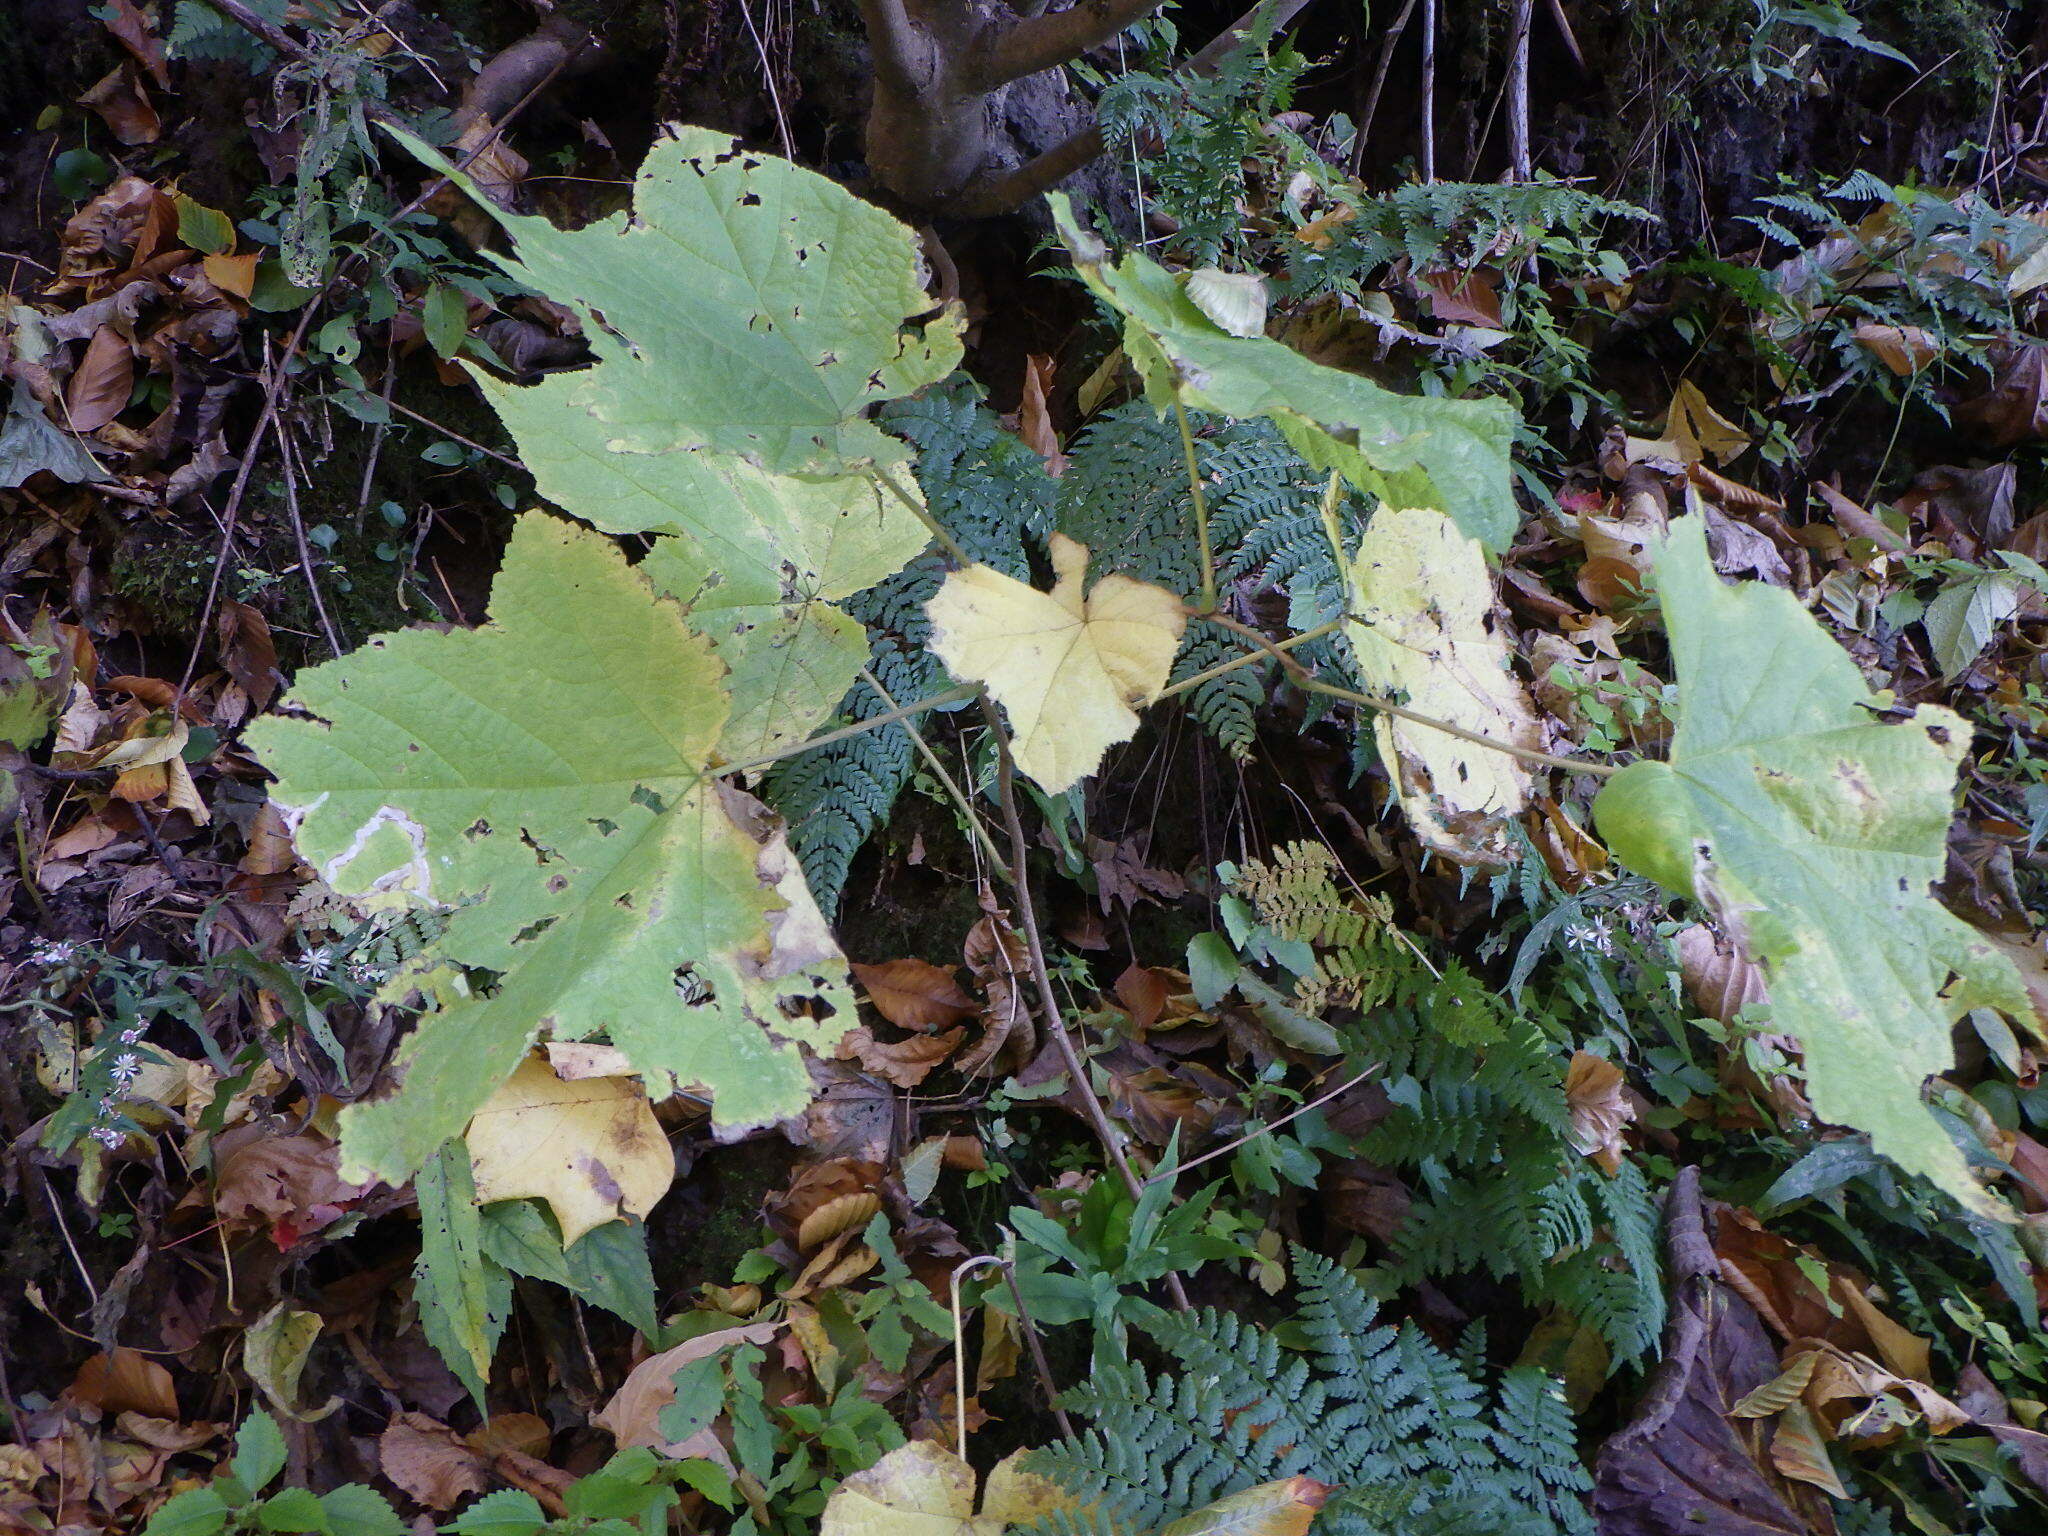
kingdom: Plantae
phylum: Tracheophyta
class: Magnoliopsida
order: Rosales
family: Rosaceae
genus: Rubus
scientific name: Rubus odoratus
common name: Purple-flowered raspberry
